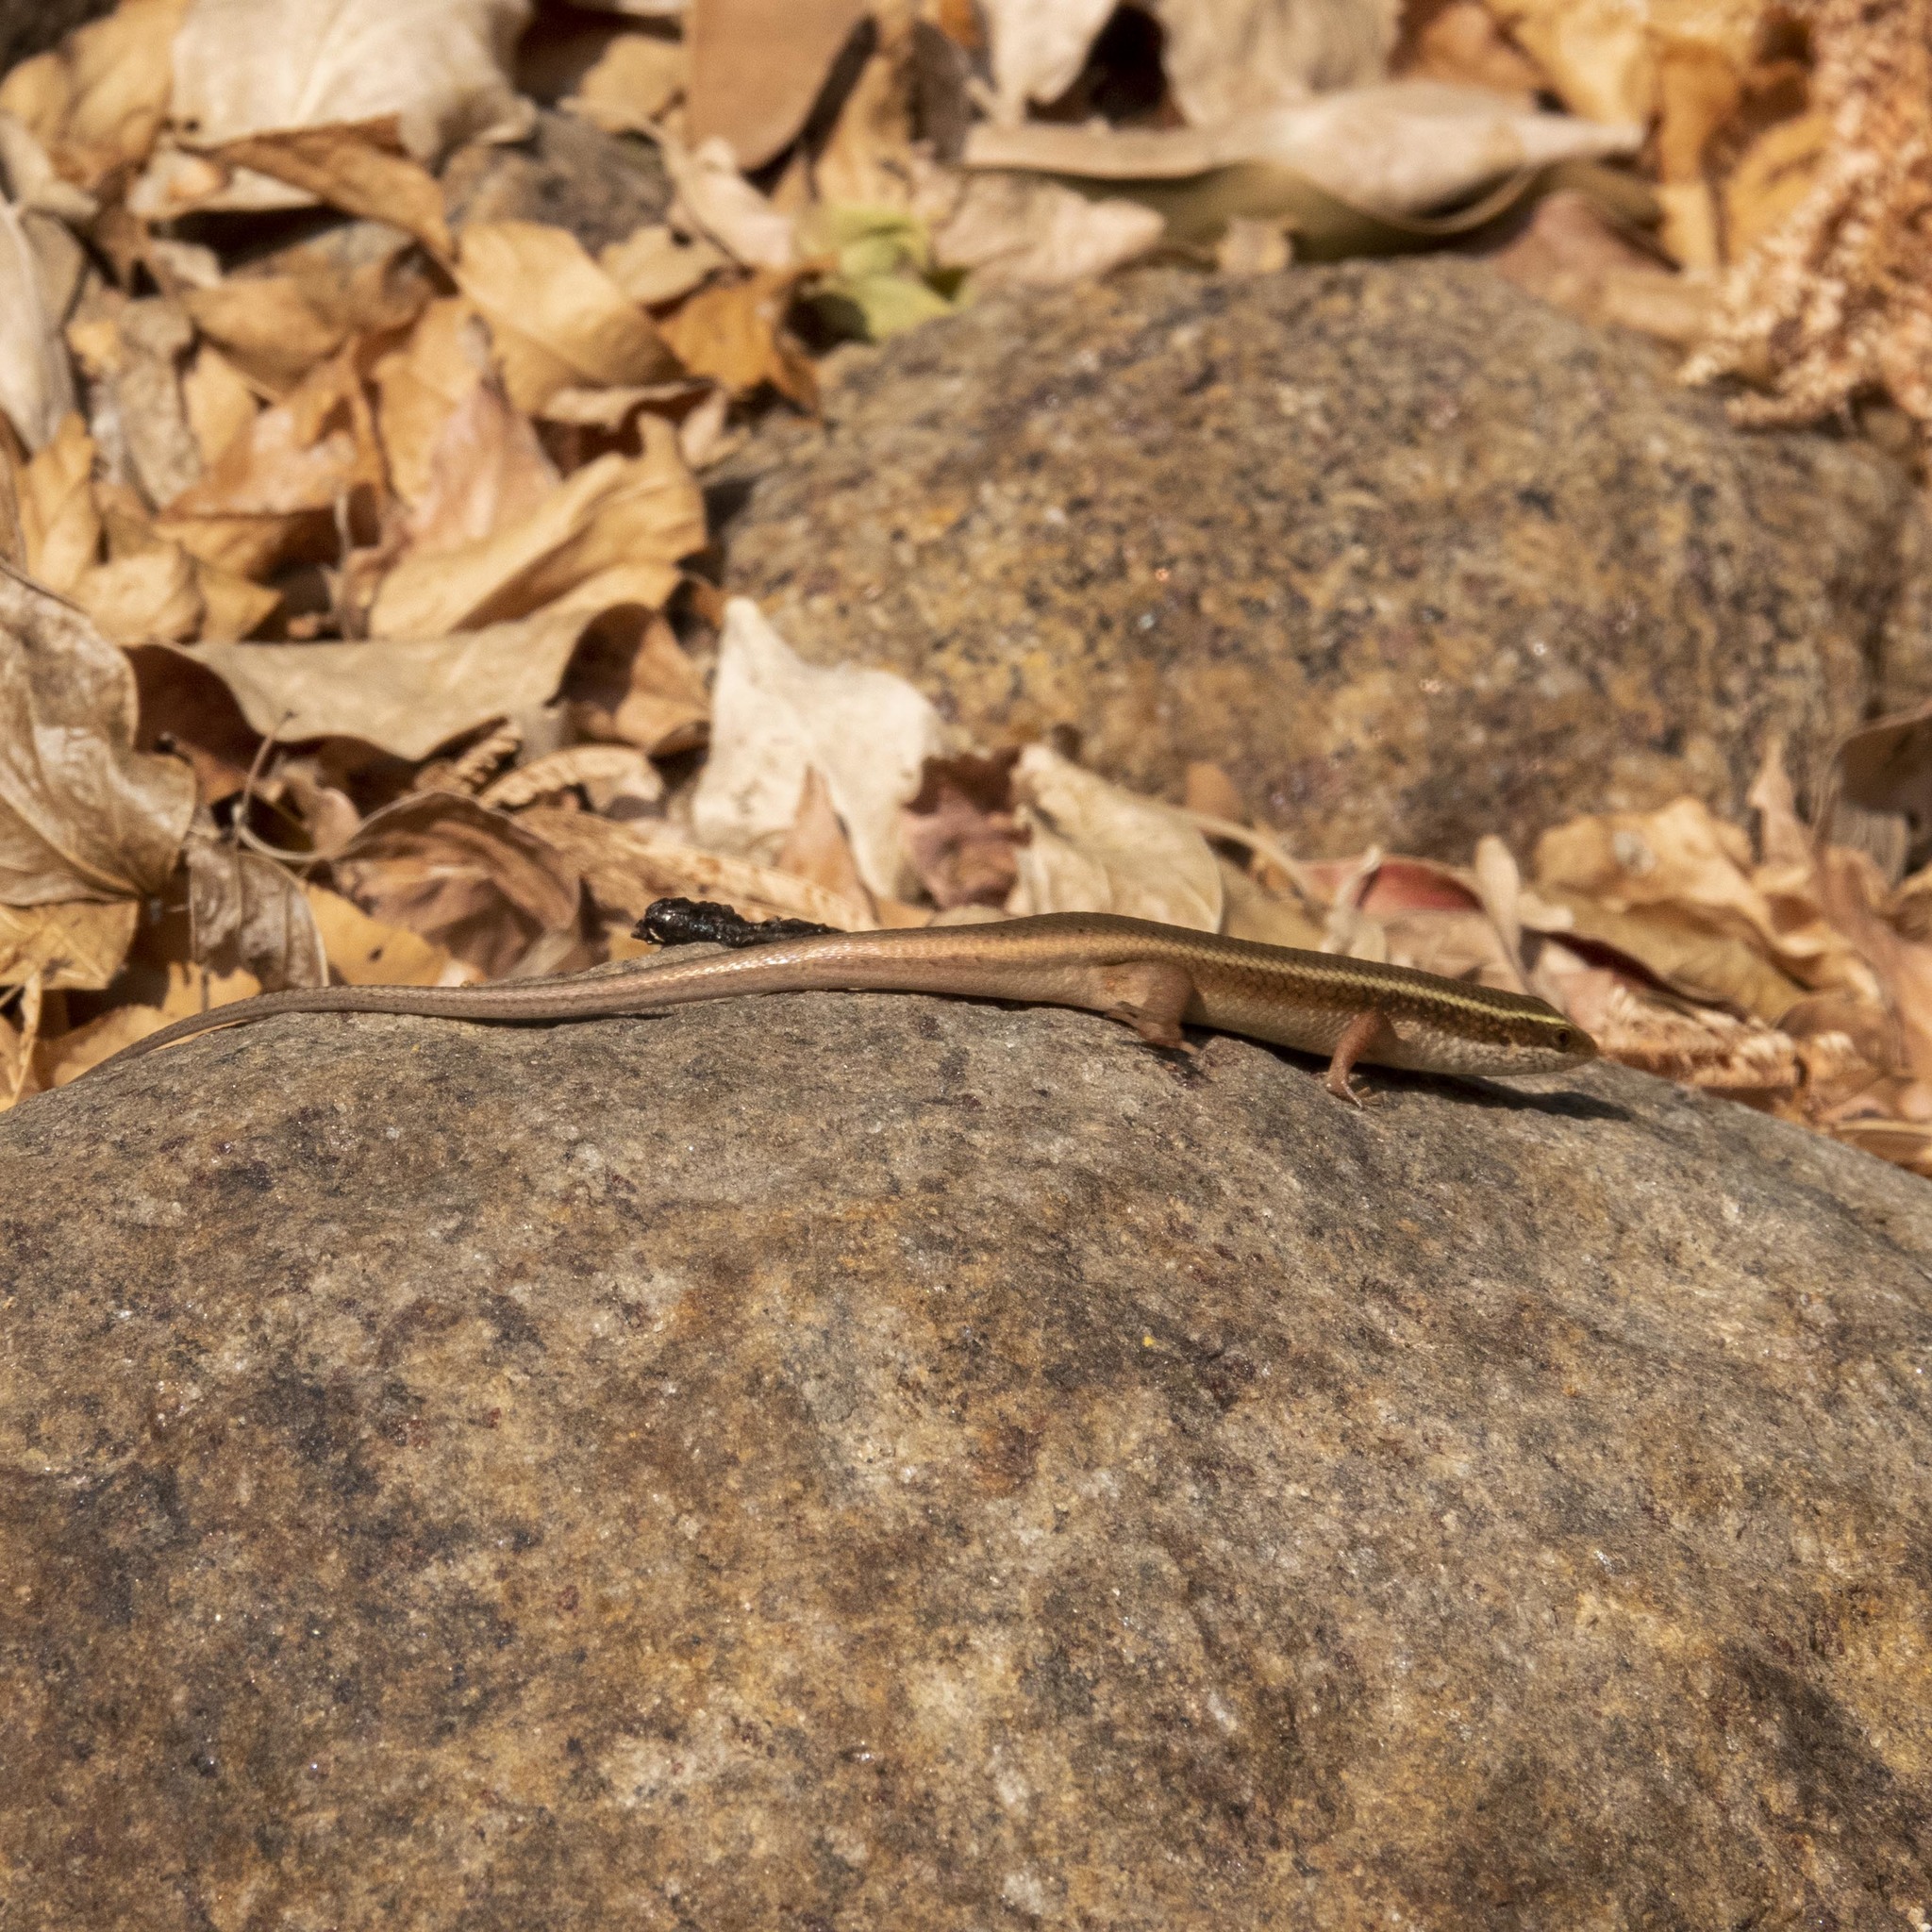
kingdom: Animalia
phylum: Chordata
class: Squamata
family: Scincidae
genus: Eutropis
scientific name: Eutropis carinata
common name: Keeled indian mabuya
